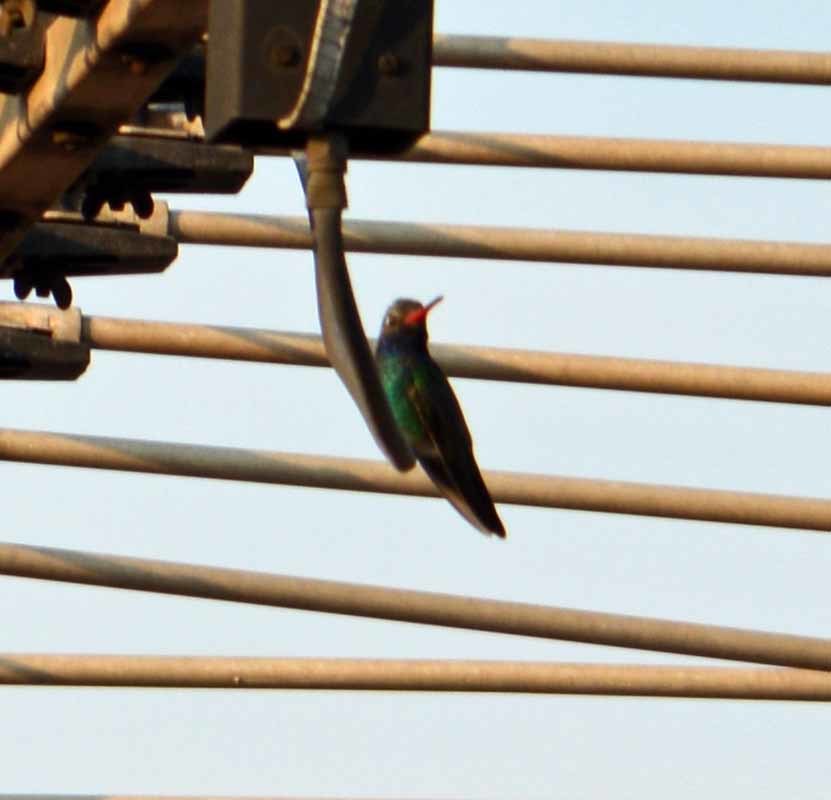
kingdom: Animalia
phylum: Chordata
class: Aves
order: Apodiformes
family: Trochilidae
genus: Cynanthus
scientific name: Cynanthus latirostris
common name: Broad-billed hummingbird
